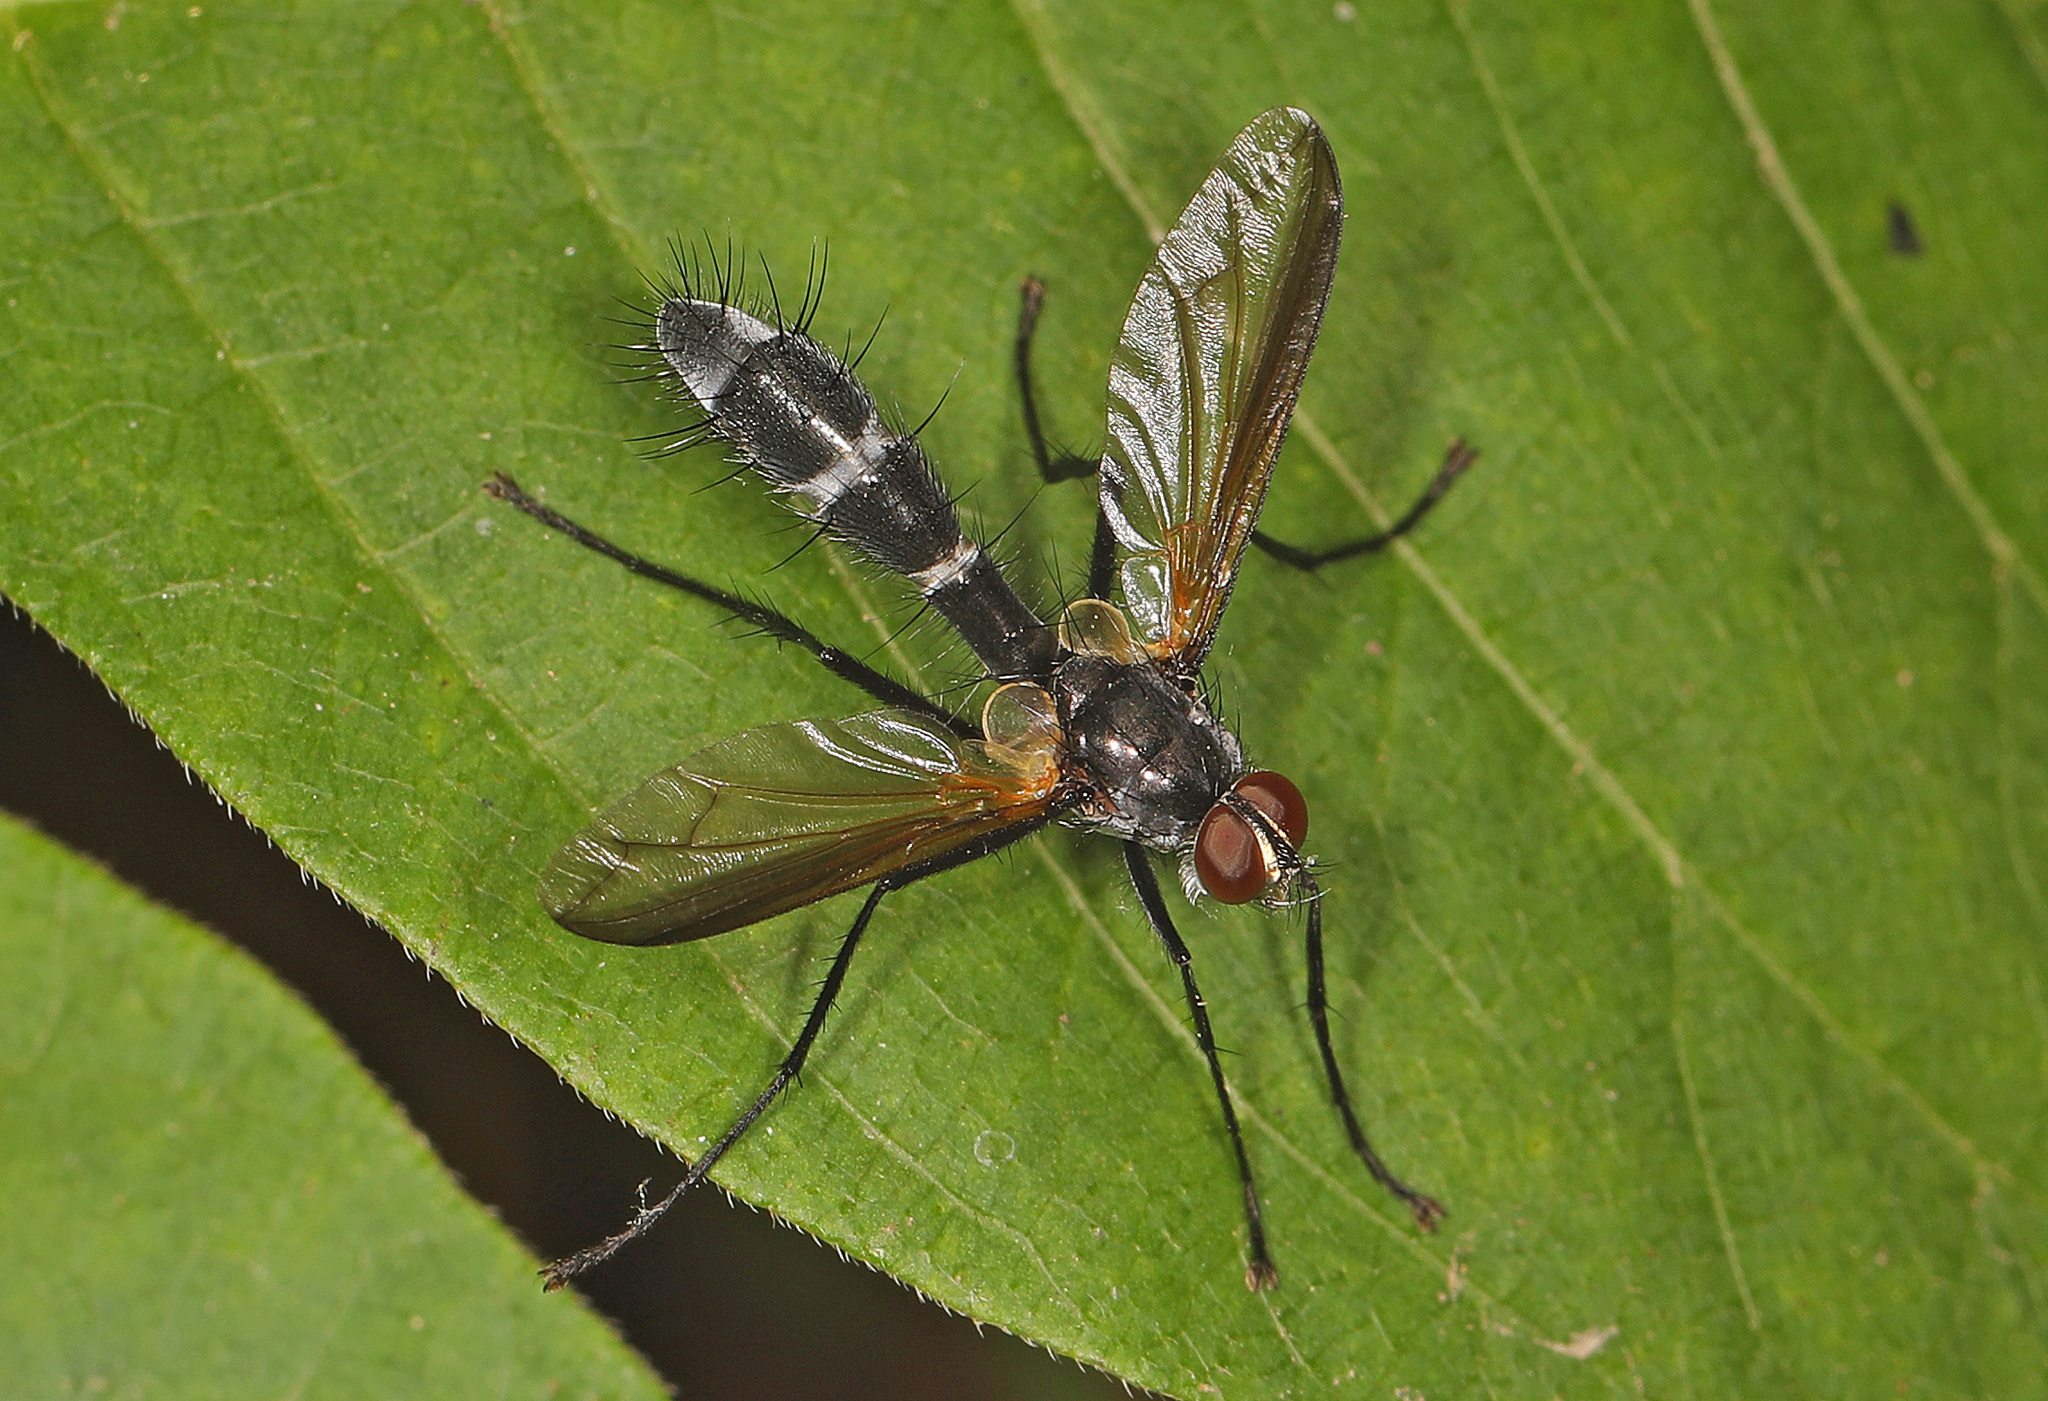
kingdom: Animalia
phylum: Arthropoda
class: Insecta
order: Diptera
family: Tachinidae
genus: Cordyligaster
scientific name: Cordyligaster septentrionalis
